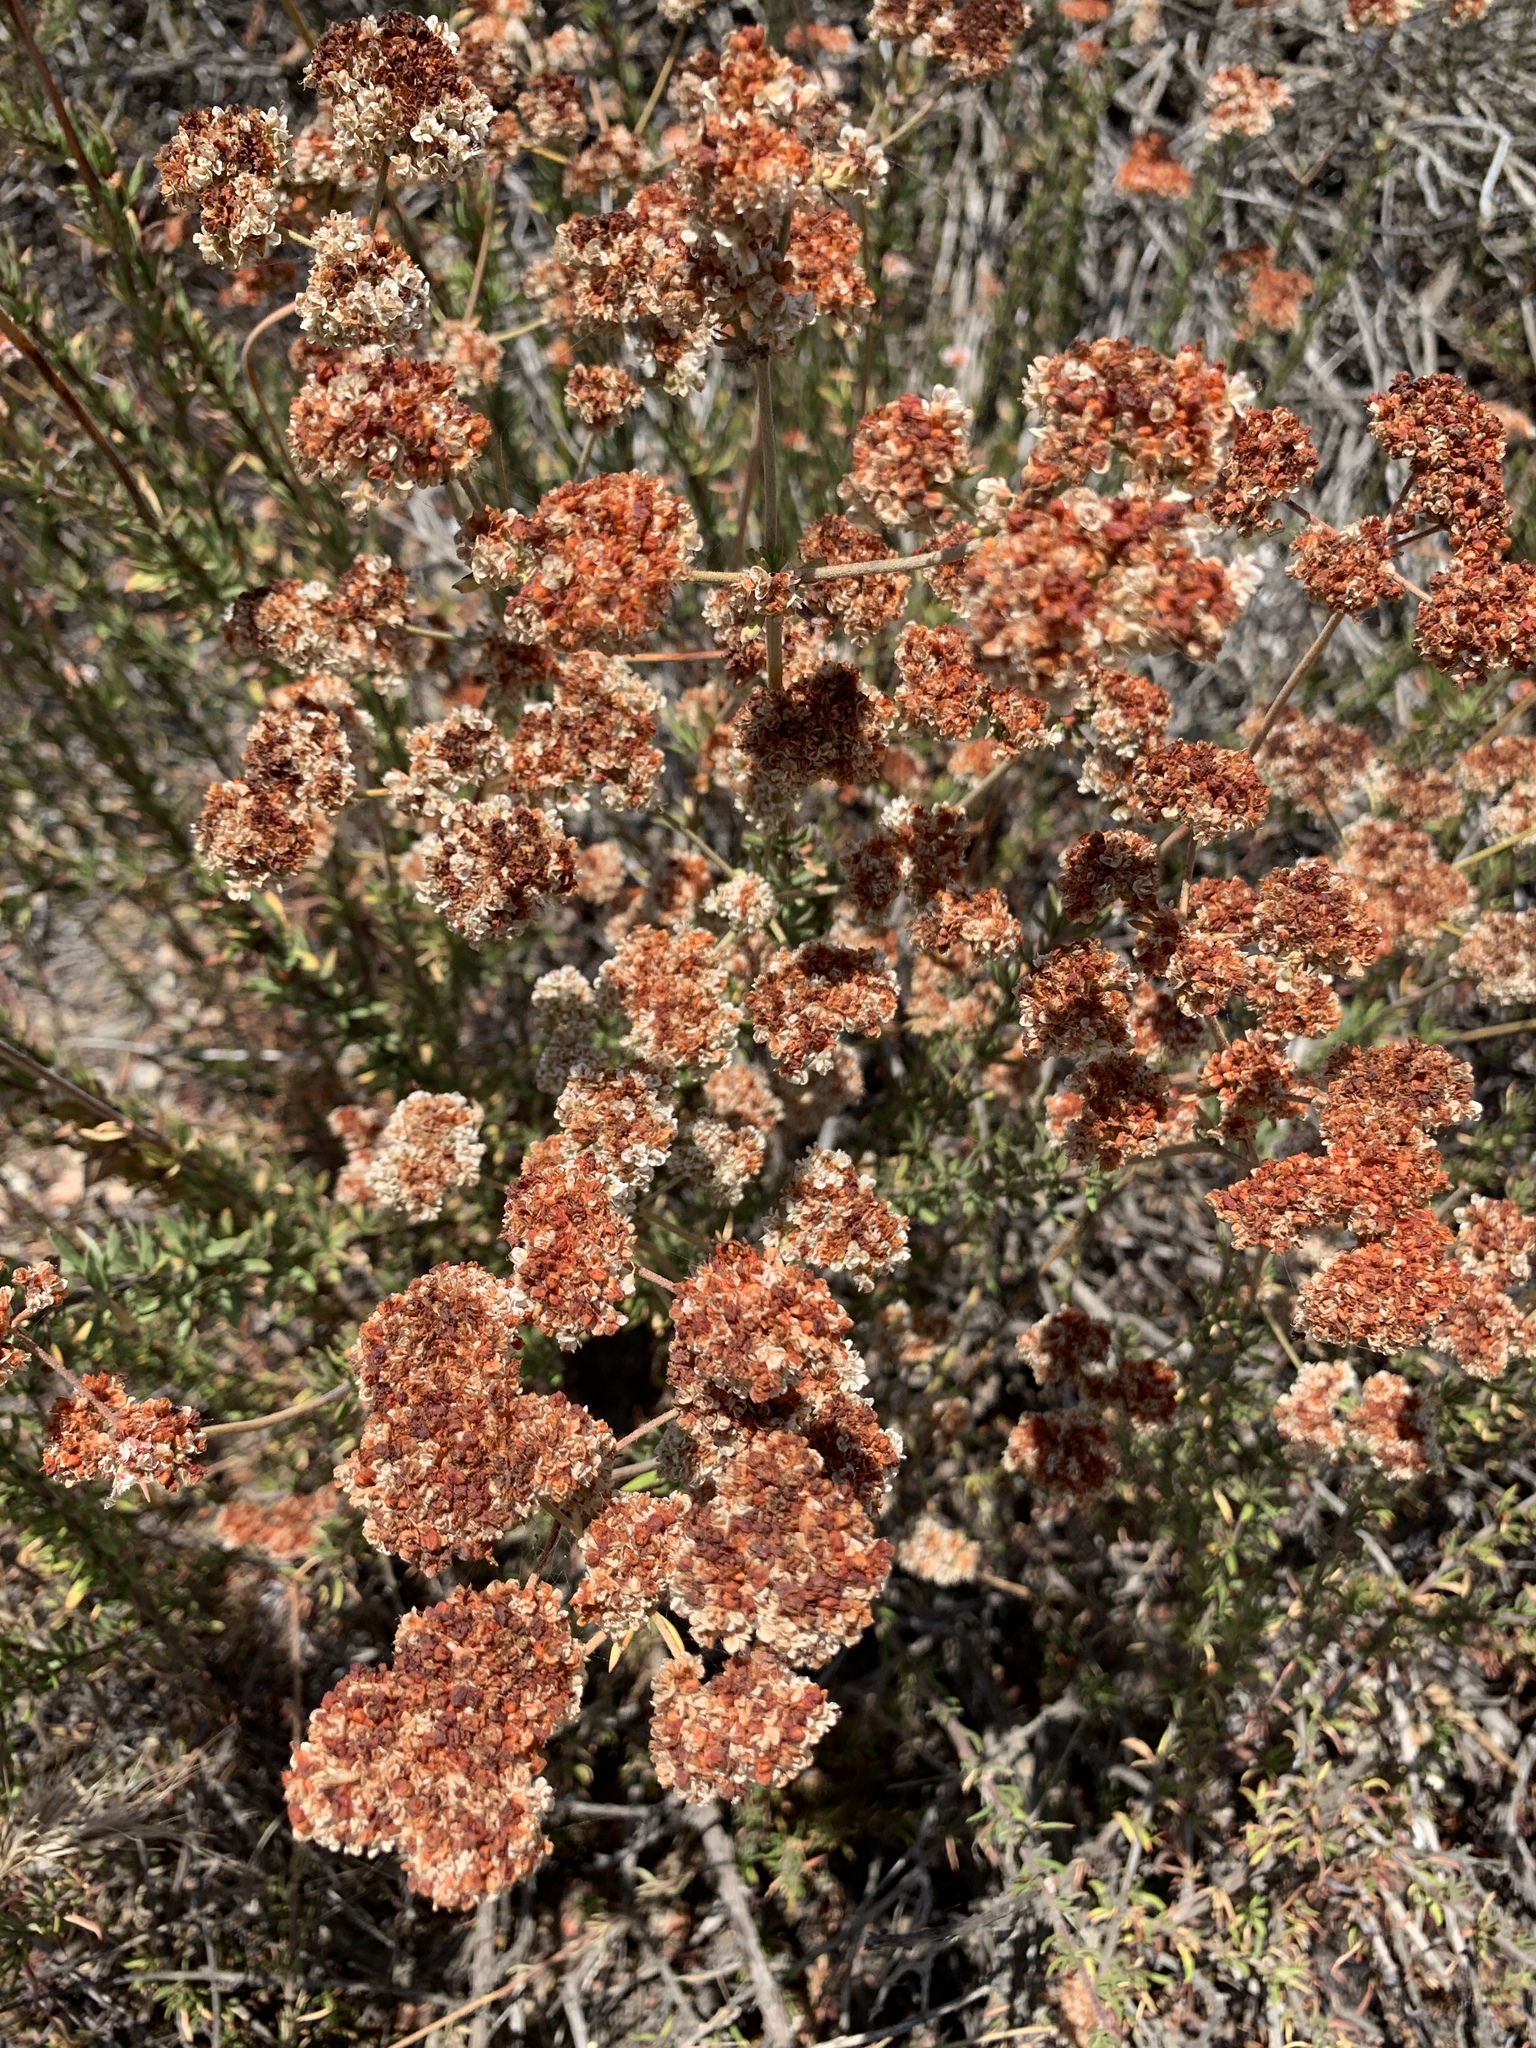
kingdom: Plantae
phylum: Tracheophyta
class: Magnoliopsida
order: Caryophyllales
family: Polygonaceae
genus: Eriogonum
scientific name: Eriogonum fasciculatum
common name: California wild buckwheat
